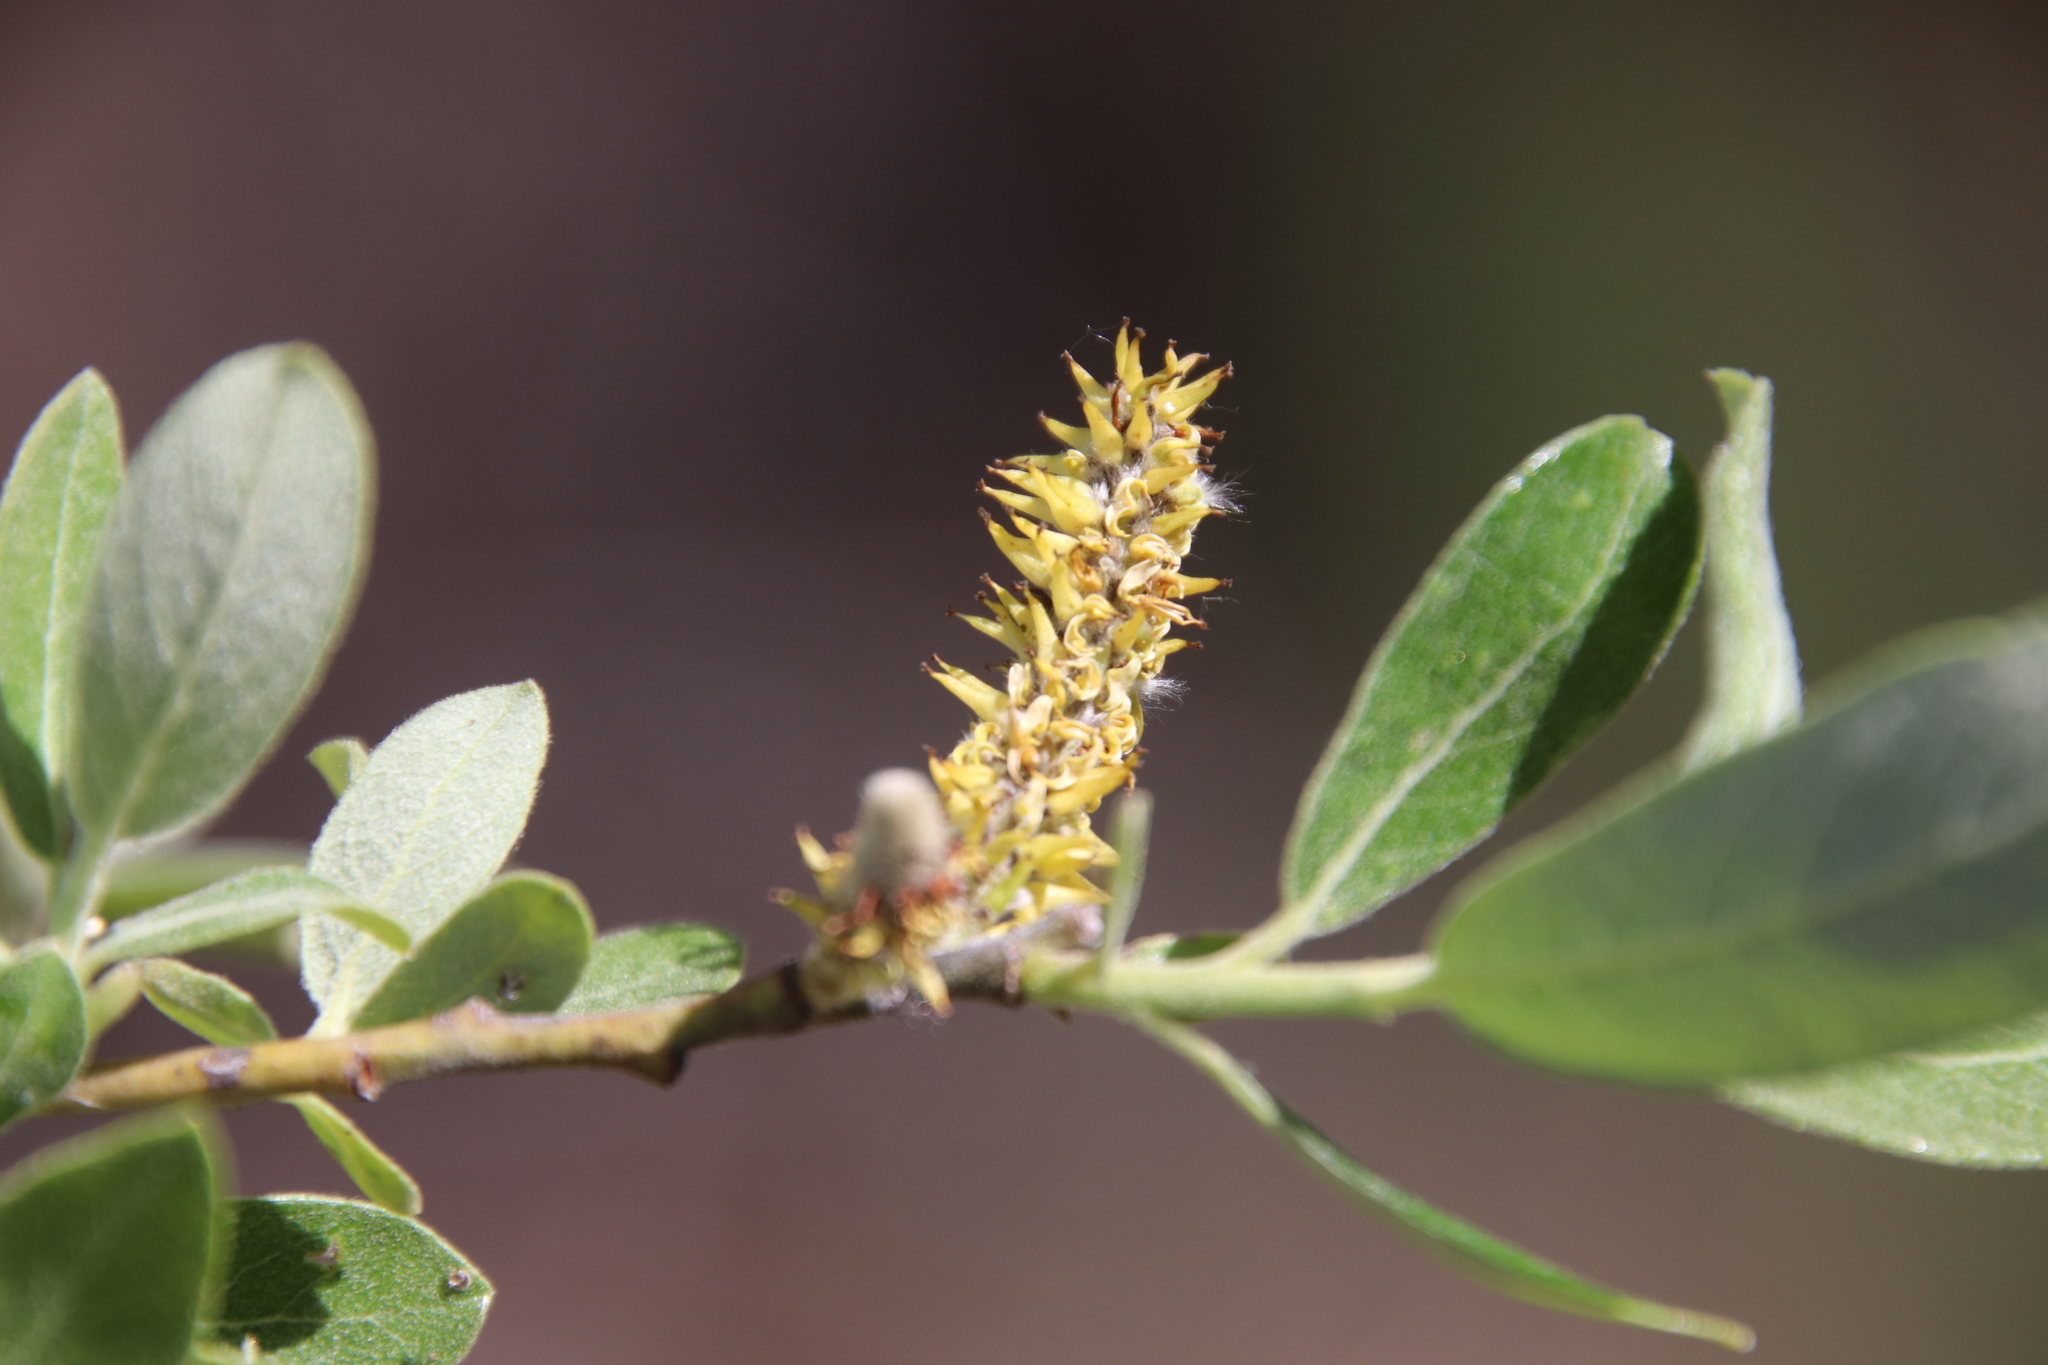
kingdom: Plantae
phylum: Tracheophyta
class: Magnoliopsida
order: Malpighiales
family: Salicaceae
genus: Salix
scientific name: Salix lasiolepis
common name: Arroyo willow
